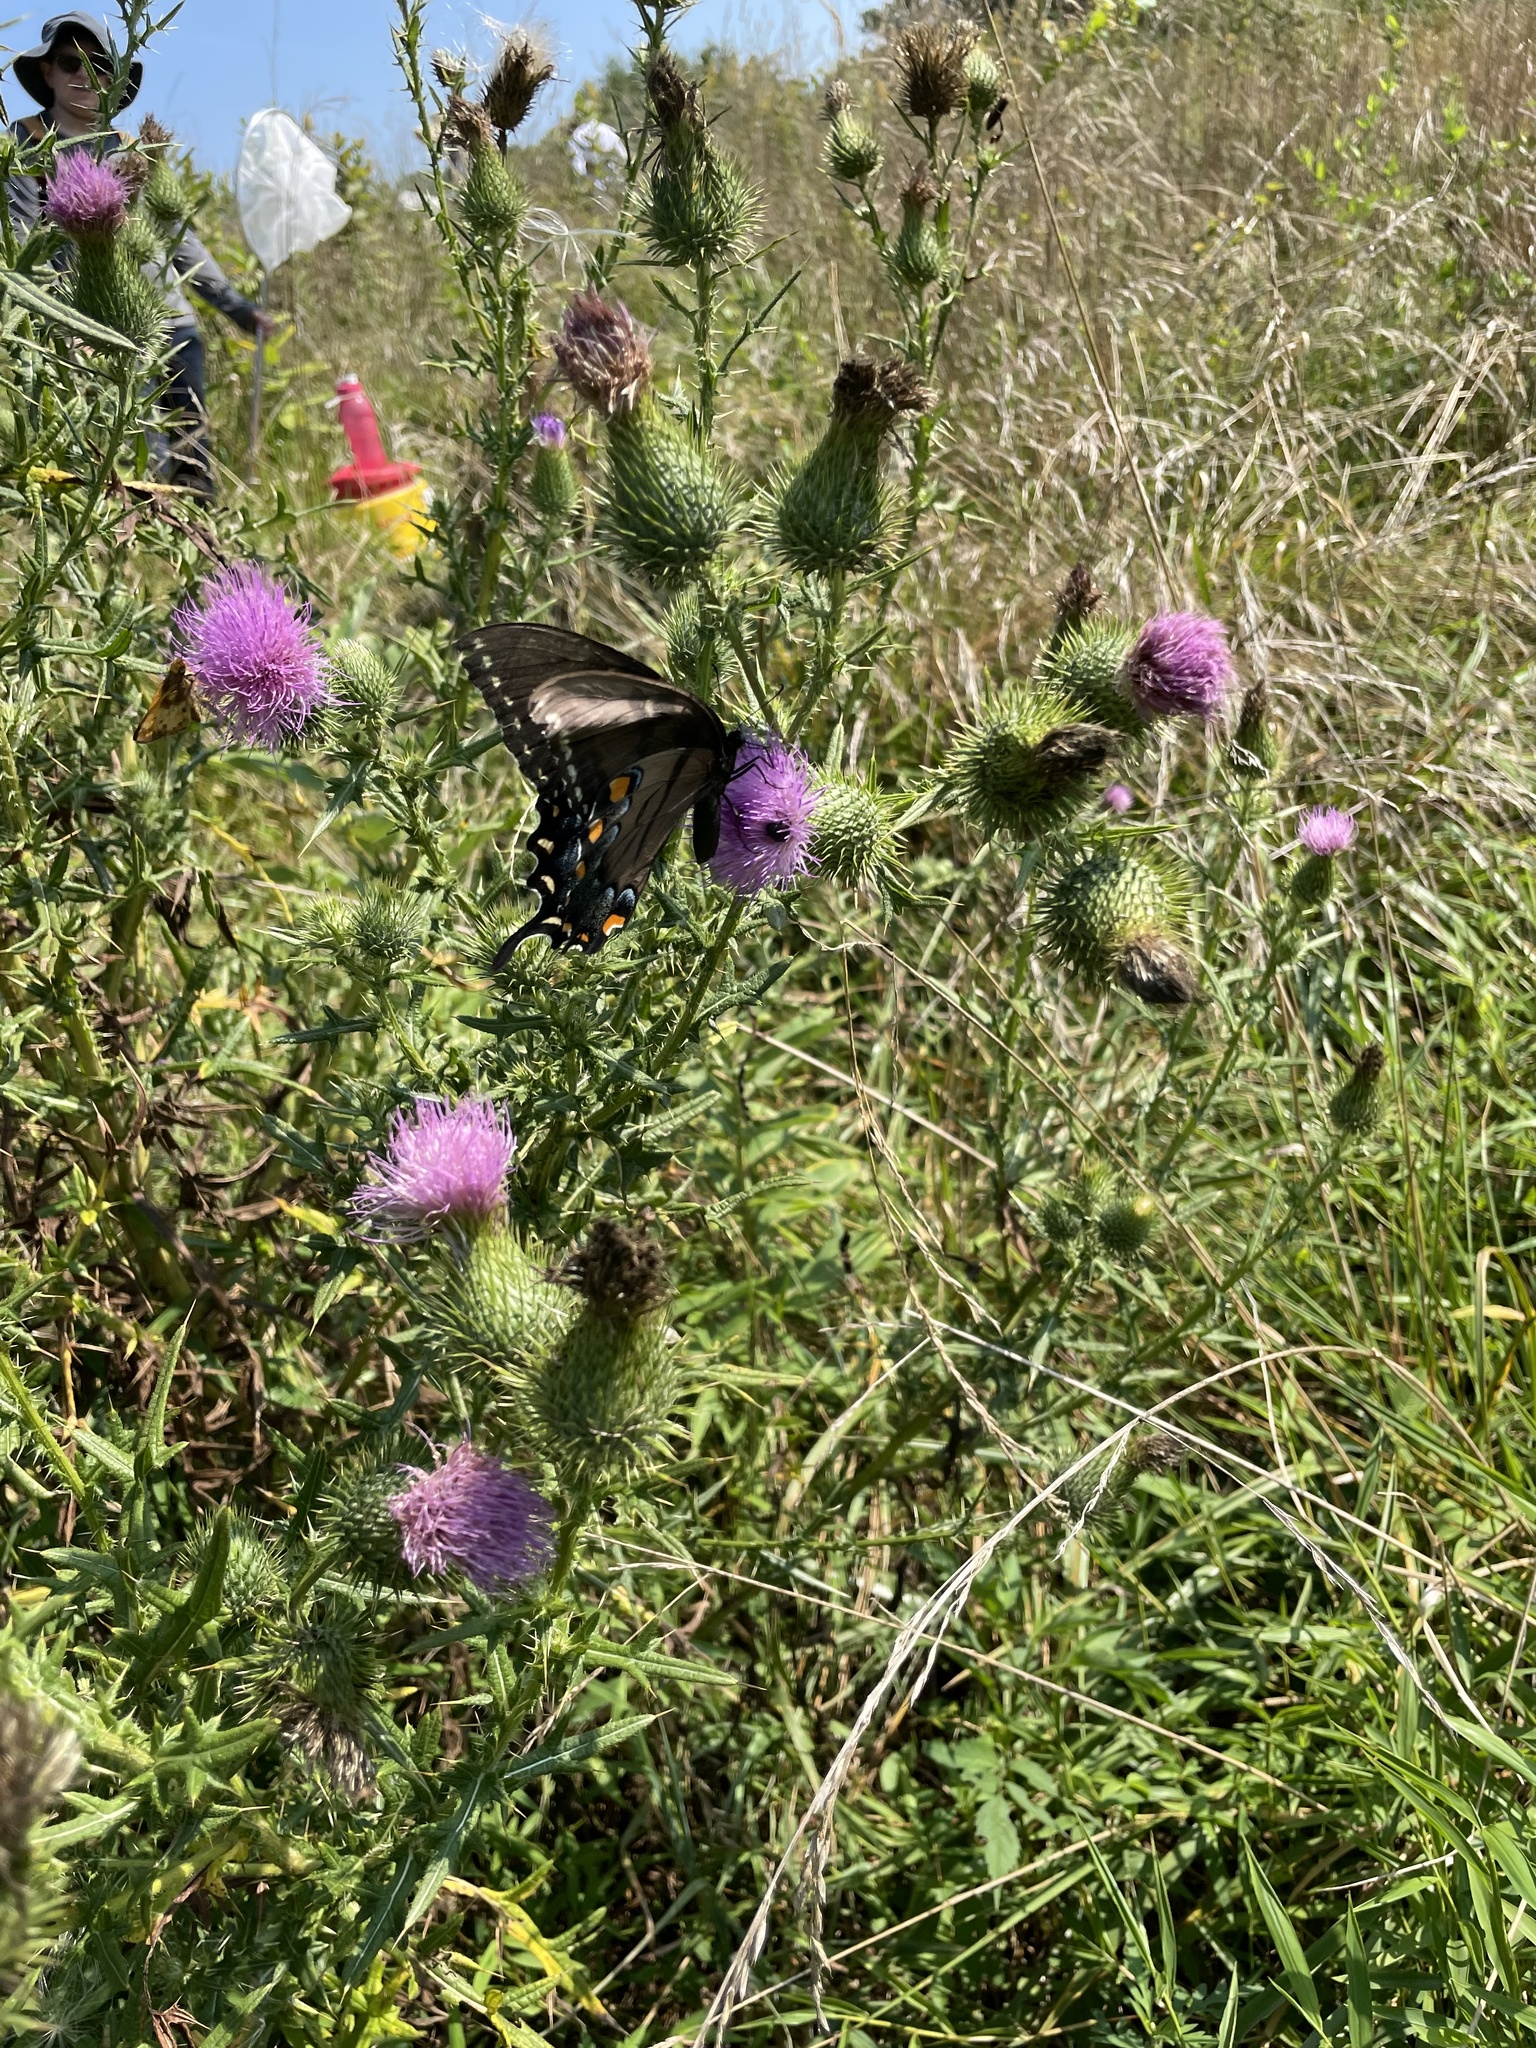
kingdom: Animalia
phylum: Arthropoda
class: Insecta
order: Lepidoptera
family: Papilionidae
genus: Papilio
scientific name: Papilio glaucus
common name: Tiger swallowtail
